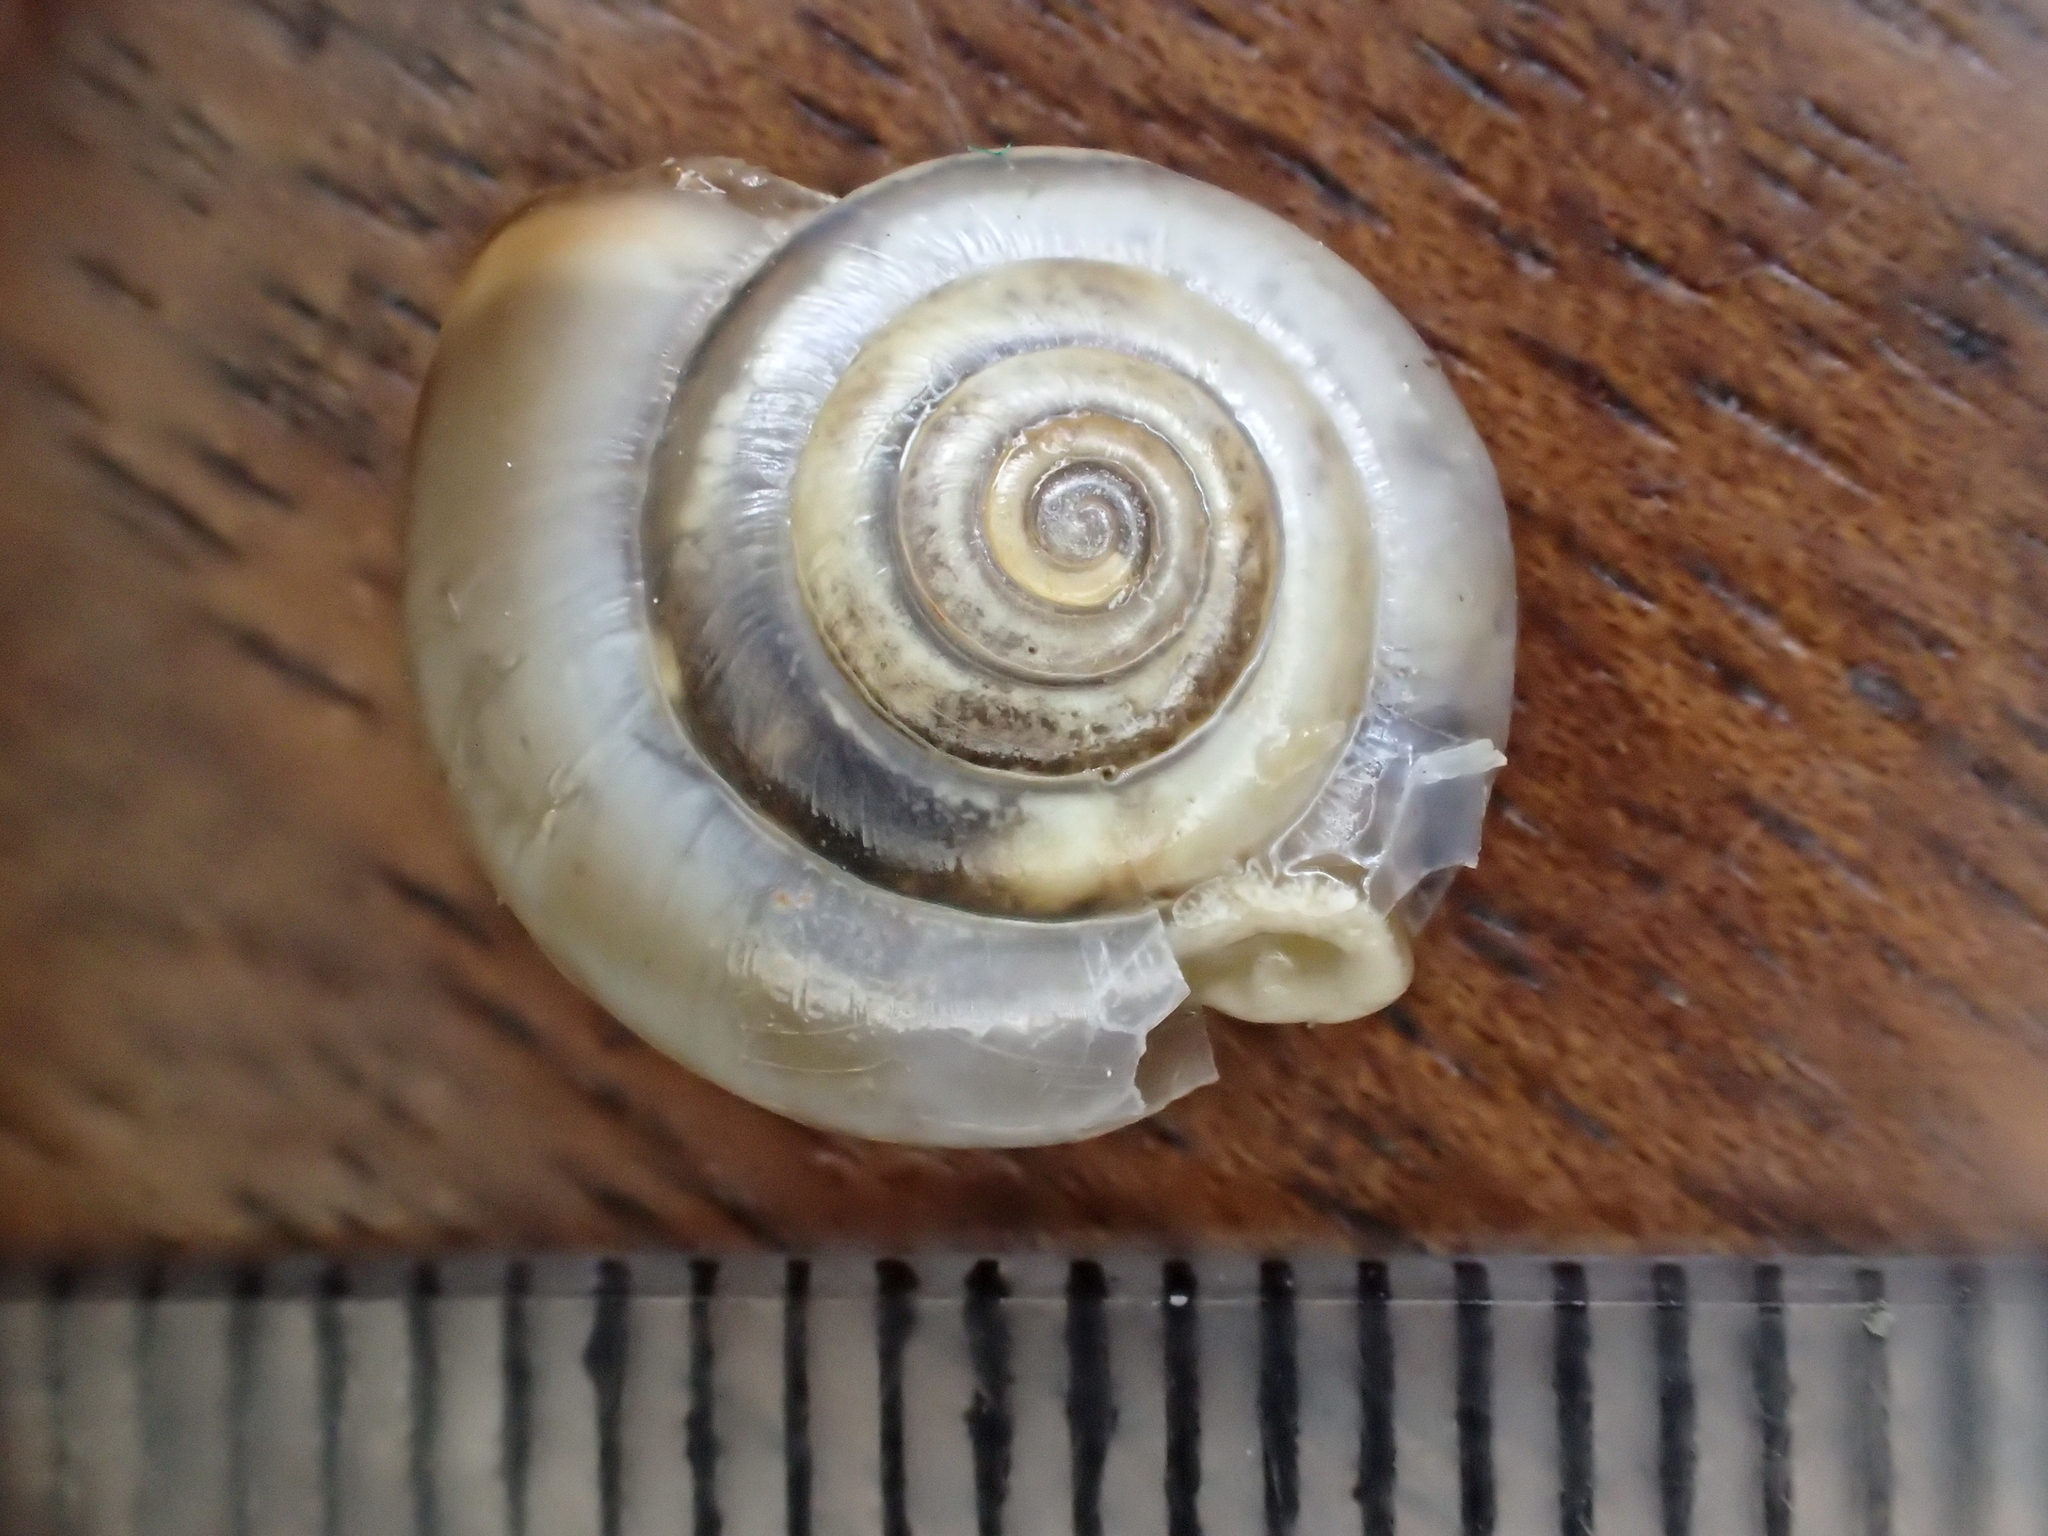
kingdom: Animalia
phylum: Mollusca
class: Gastropoda
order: Stylommatophora
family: Hygromiidae
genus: Monacha
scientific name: Monacha cartusiana
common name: Carthusian snail
